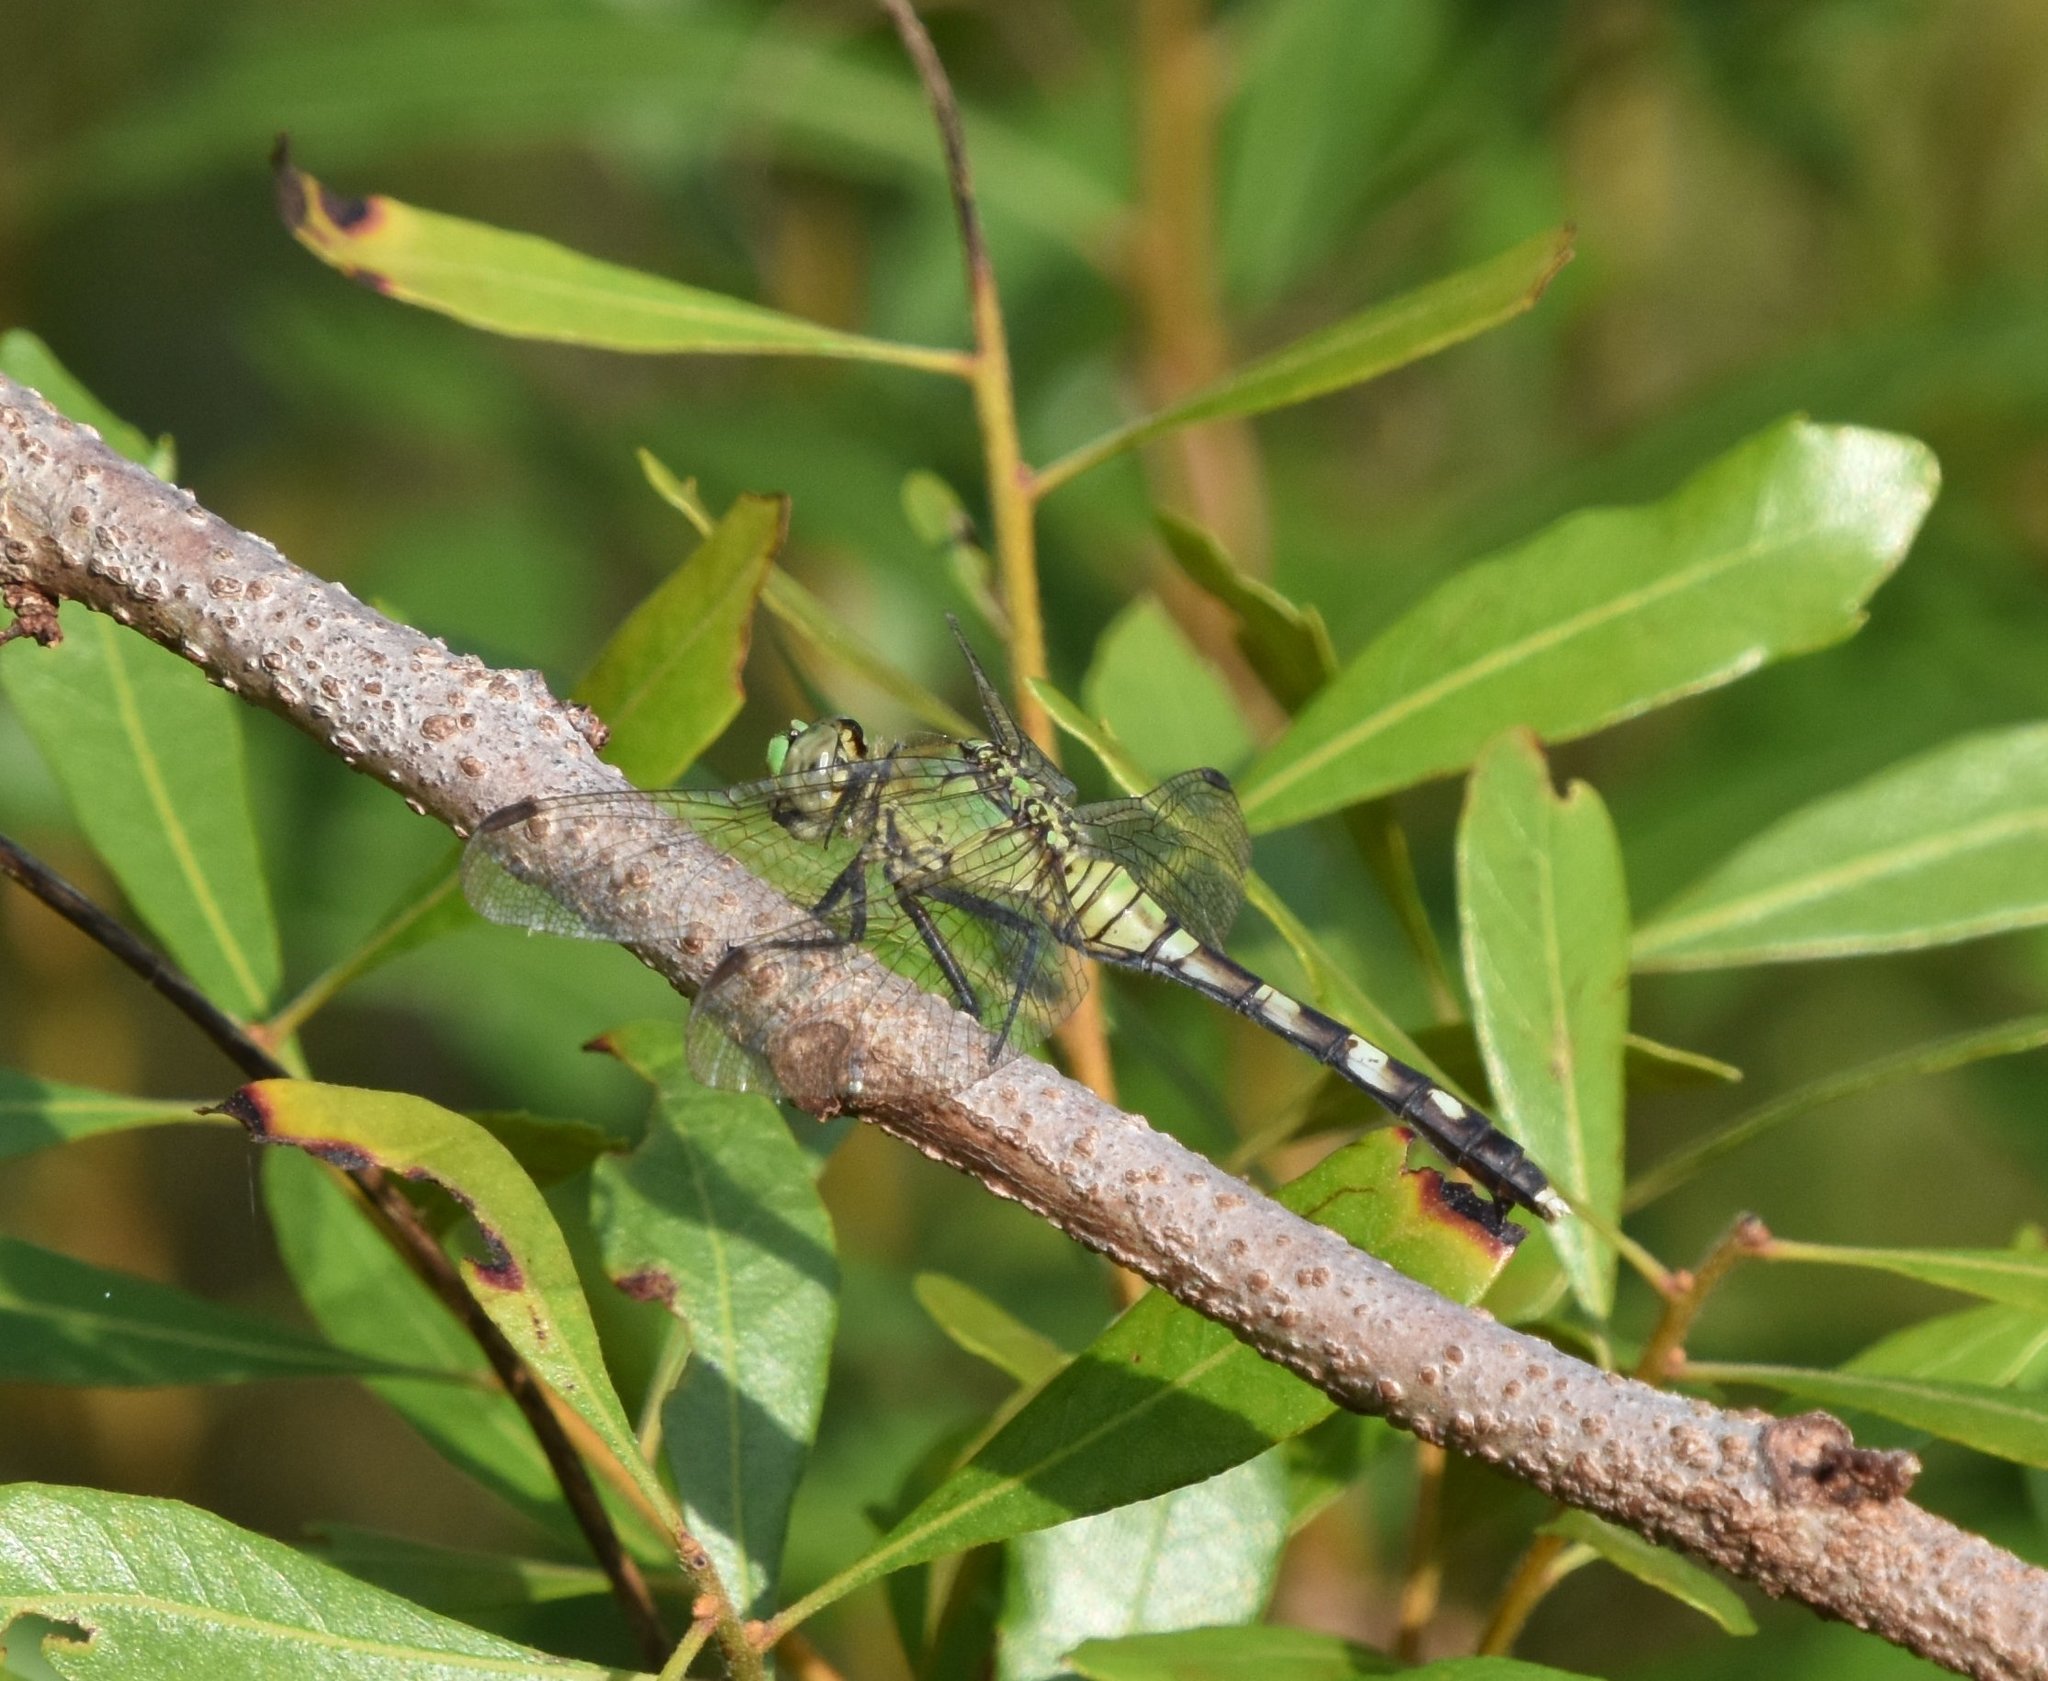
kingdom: Animalia
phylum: Arthropoda
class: Insecta
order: Odonata
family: Libellulidae
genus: Erythemis
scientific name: Erythemis simplicicollis
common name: Eastern pondhawk
